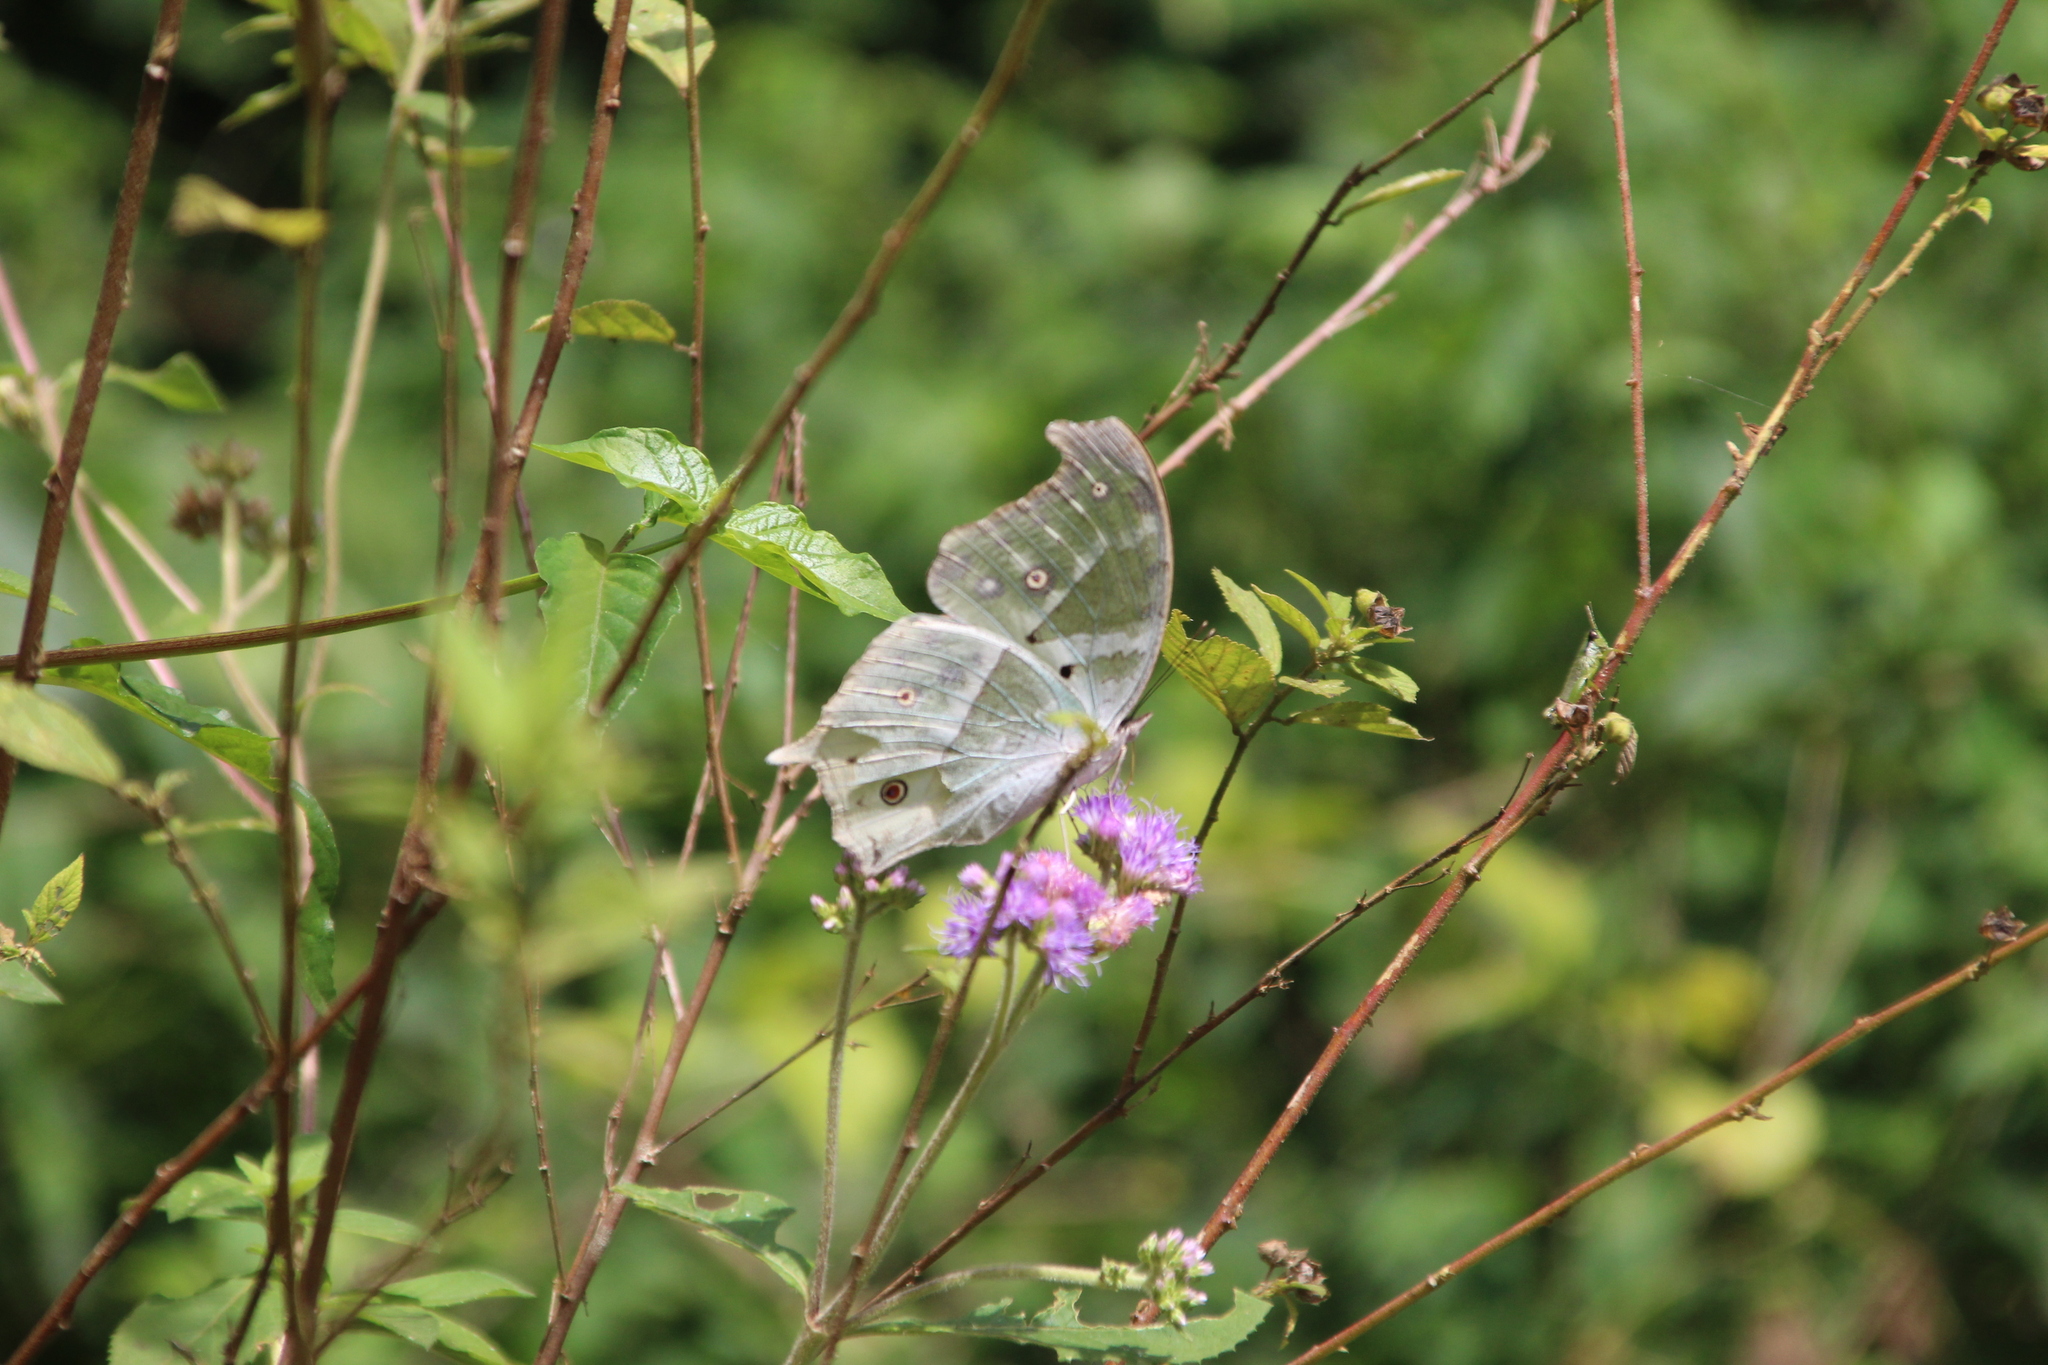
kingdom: Animalia
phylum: Arthropoda
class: Insecta
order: Lepidoptera
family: Nymphalidae
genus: Salamis
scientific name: Salamis Protogoniomorpha parhassus
